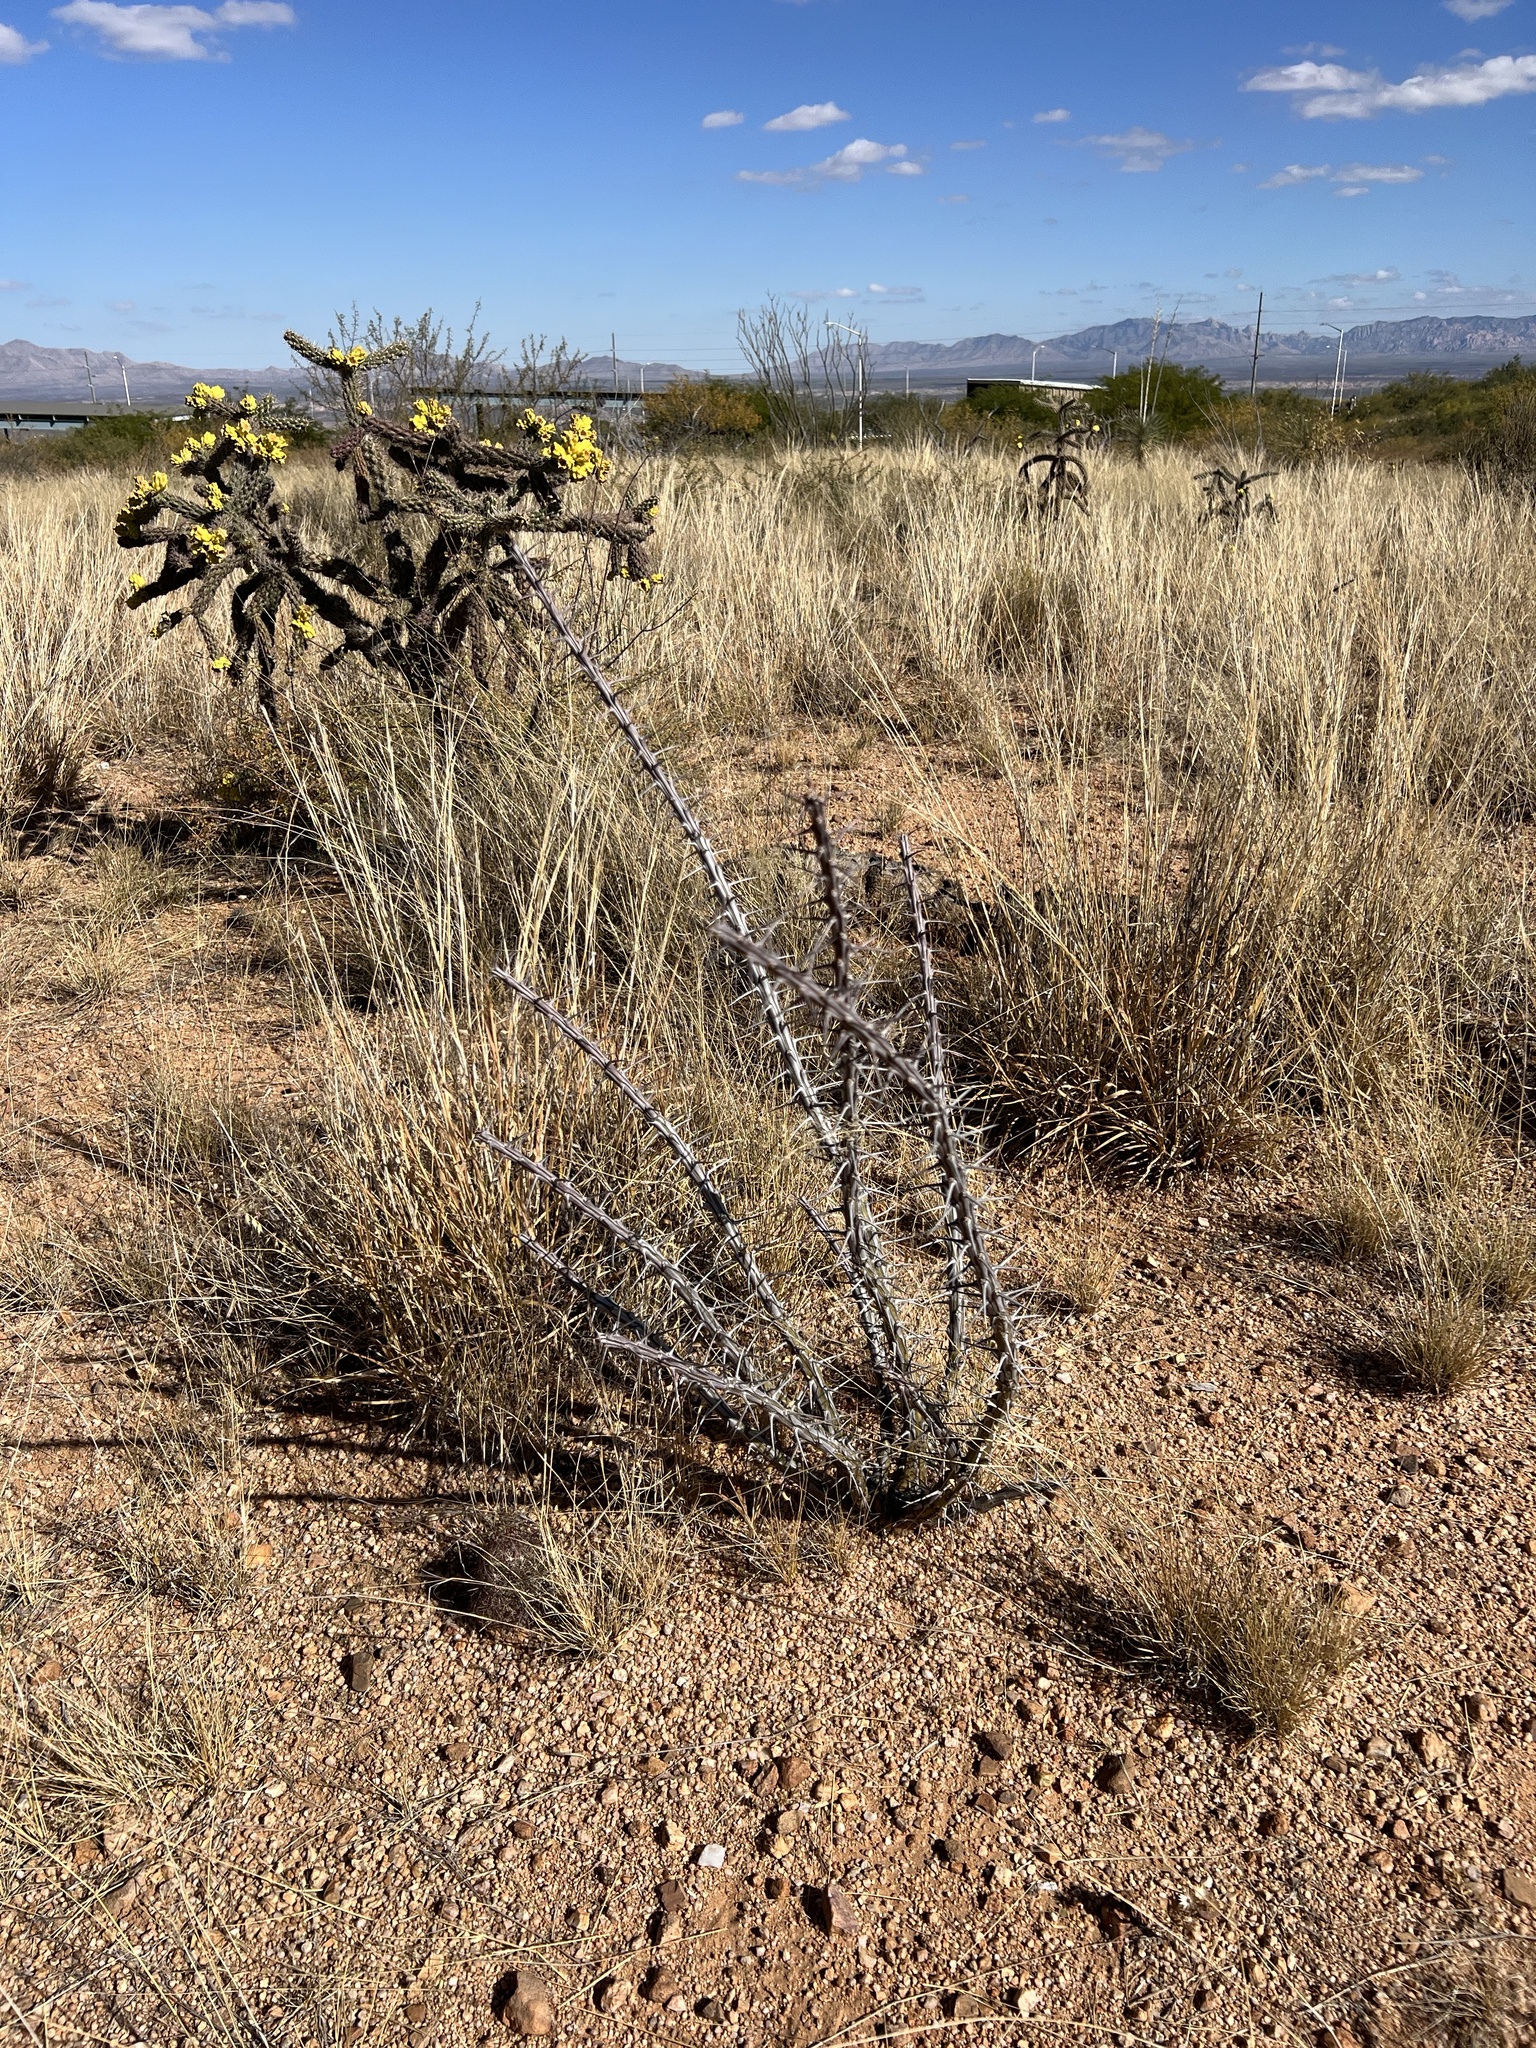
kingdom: Plantae
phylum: Tracheophyta
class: Magnoliopsida
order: Ericales
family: Fouquieriaceae
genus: Fouquieria
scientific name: Fouquieria splendens
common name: Vine-cactus
